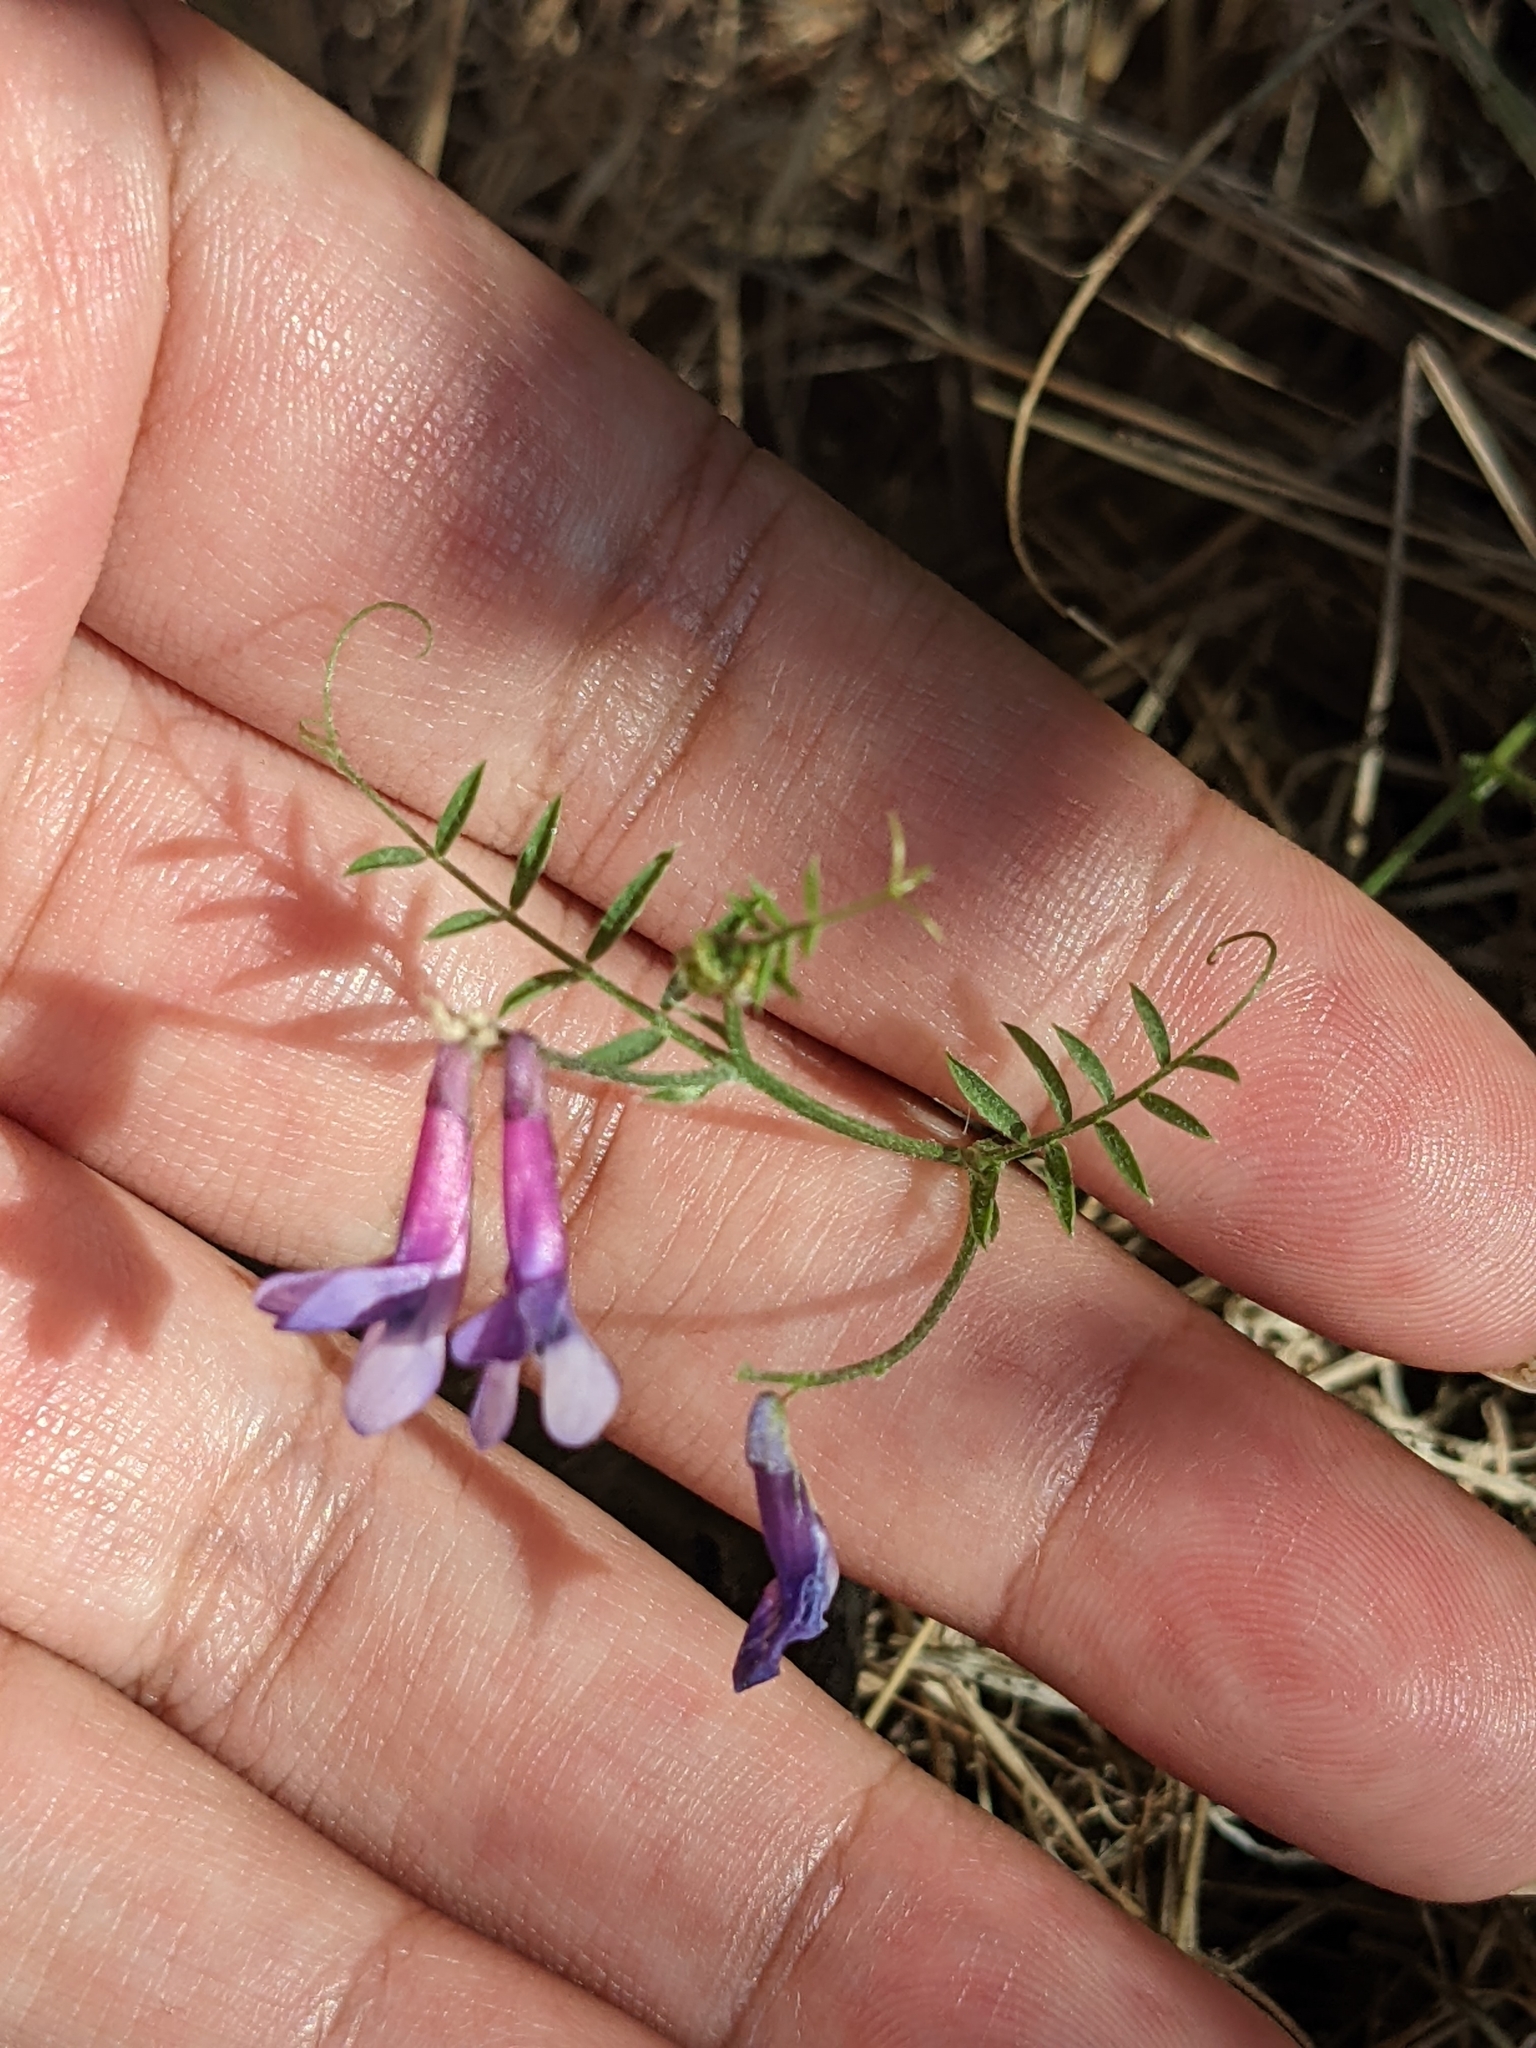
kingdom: Plantae
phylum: Tracheophyta
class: Magnoliopsida
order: Fabales
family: Fabaceae
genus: Vicia
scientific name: Vicia villosa
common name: Fodder vetch
